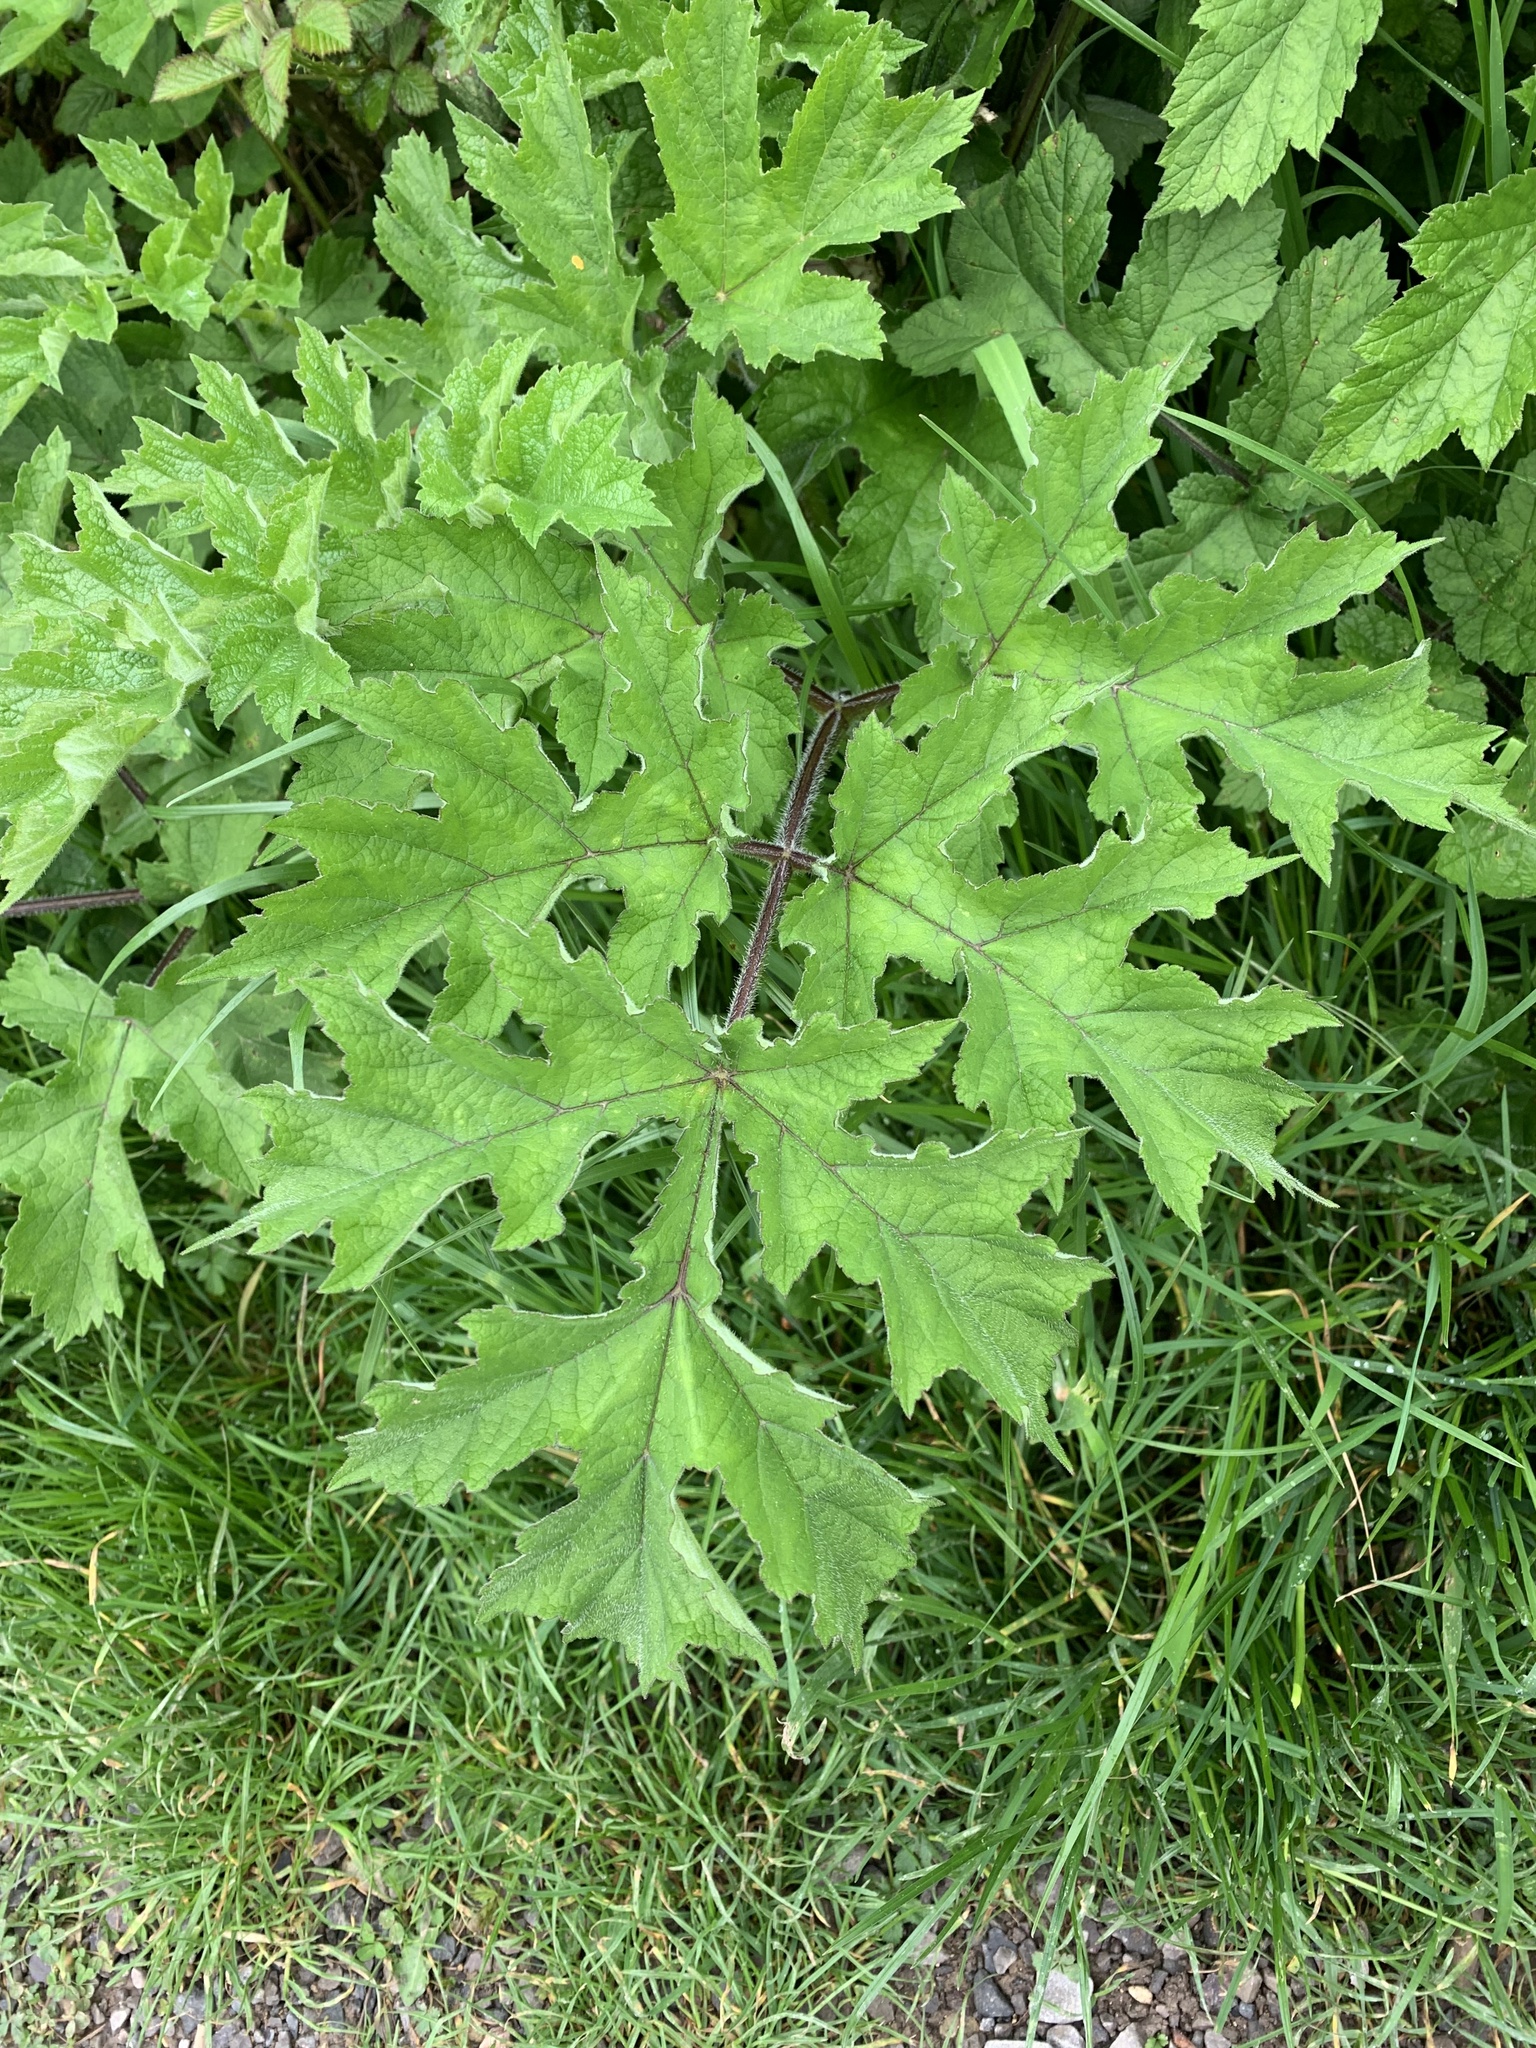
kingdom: Plantae
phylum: Tracheophyta
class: Magnoliopsida
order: Apiales
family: Apiaceae
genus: Heracleum
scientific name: Heracleum sphondylium
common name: Hogweed
